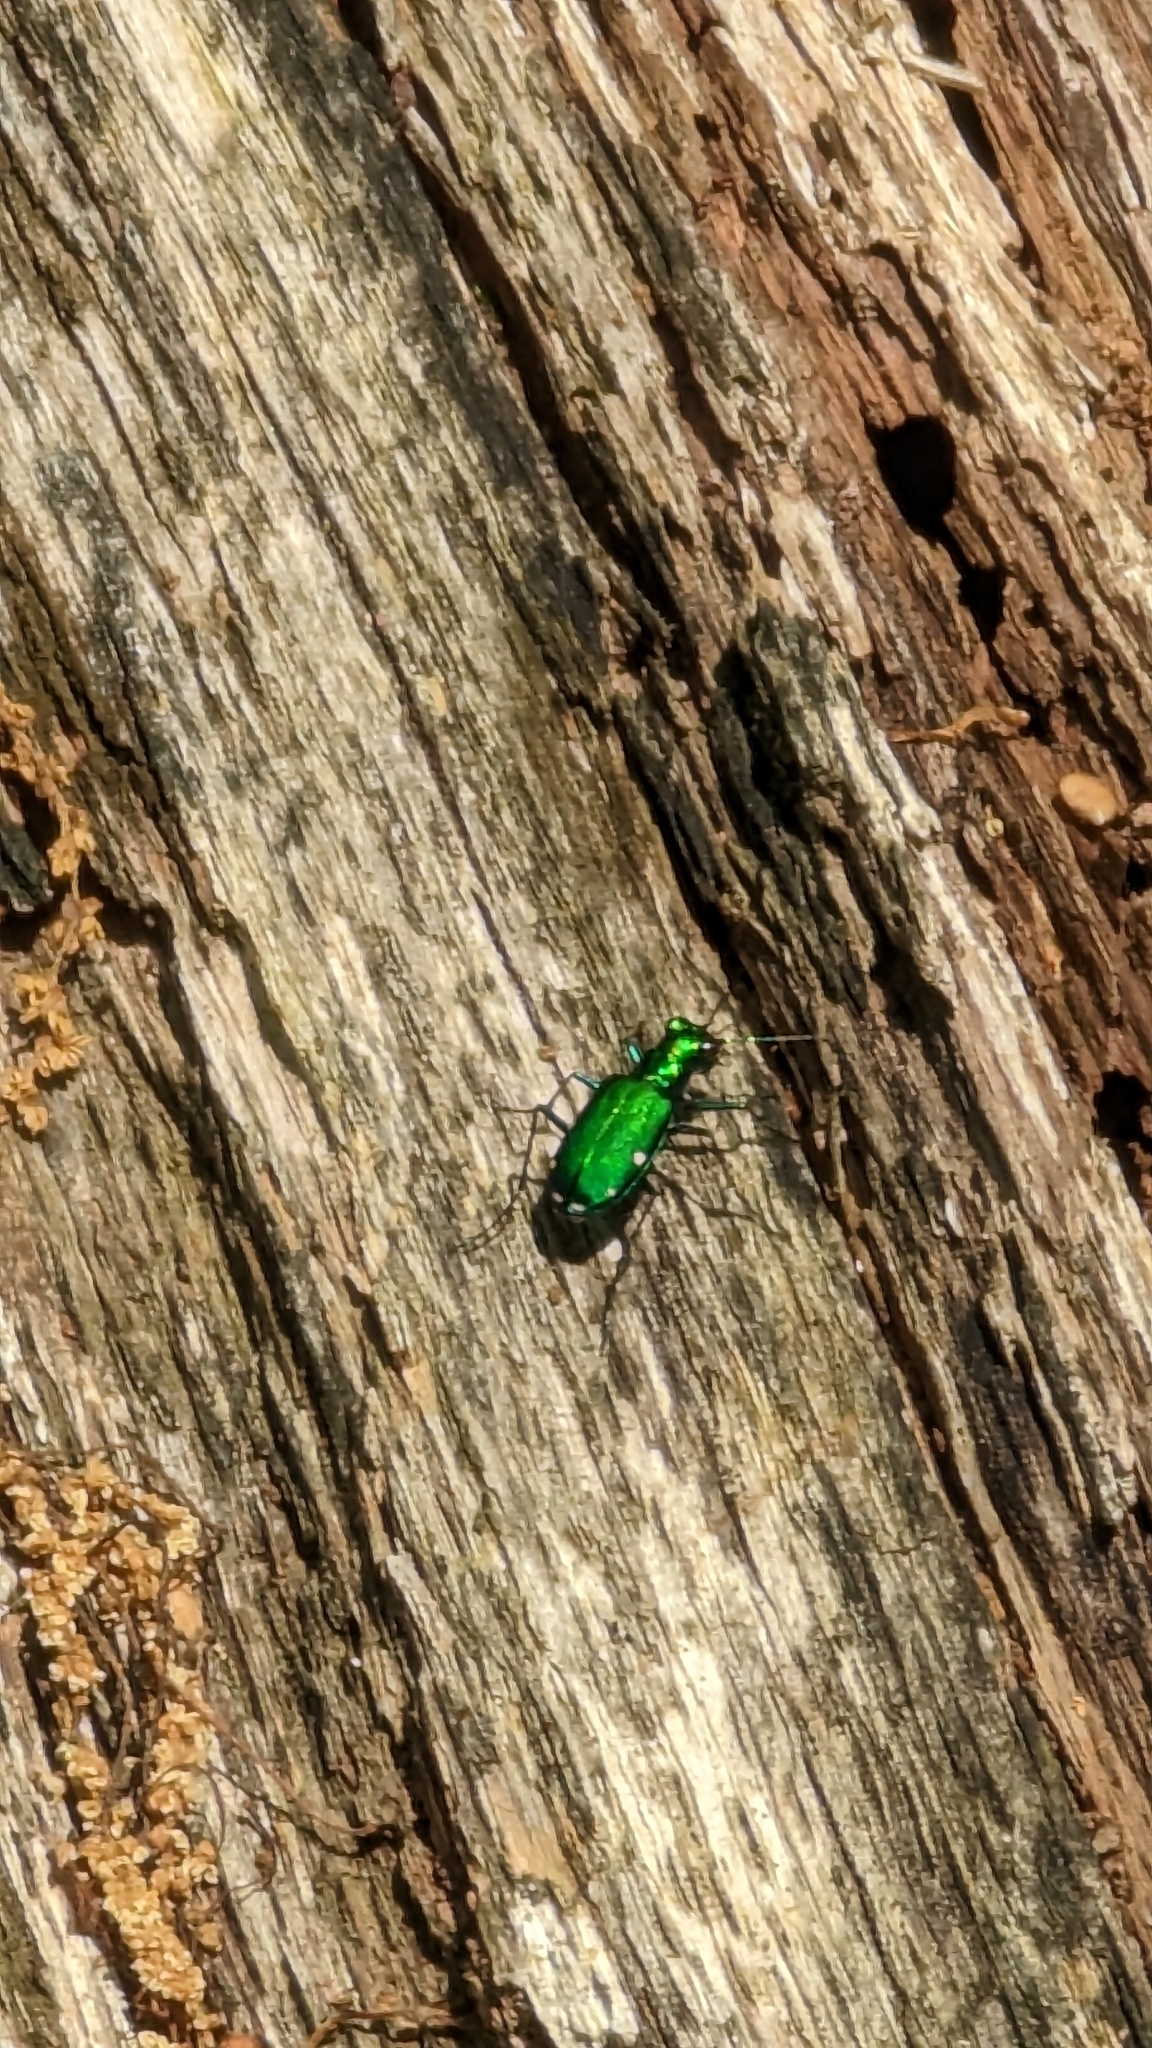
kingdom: Animalia
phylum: Arthropoda
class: Insecta
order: Coleoptera
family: Carabidae
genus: Cicindela
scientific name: Cicindela sexguttata
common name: Six-spotted tiger beetle
